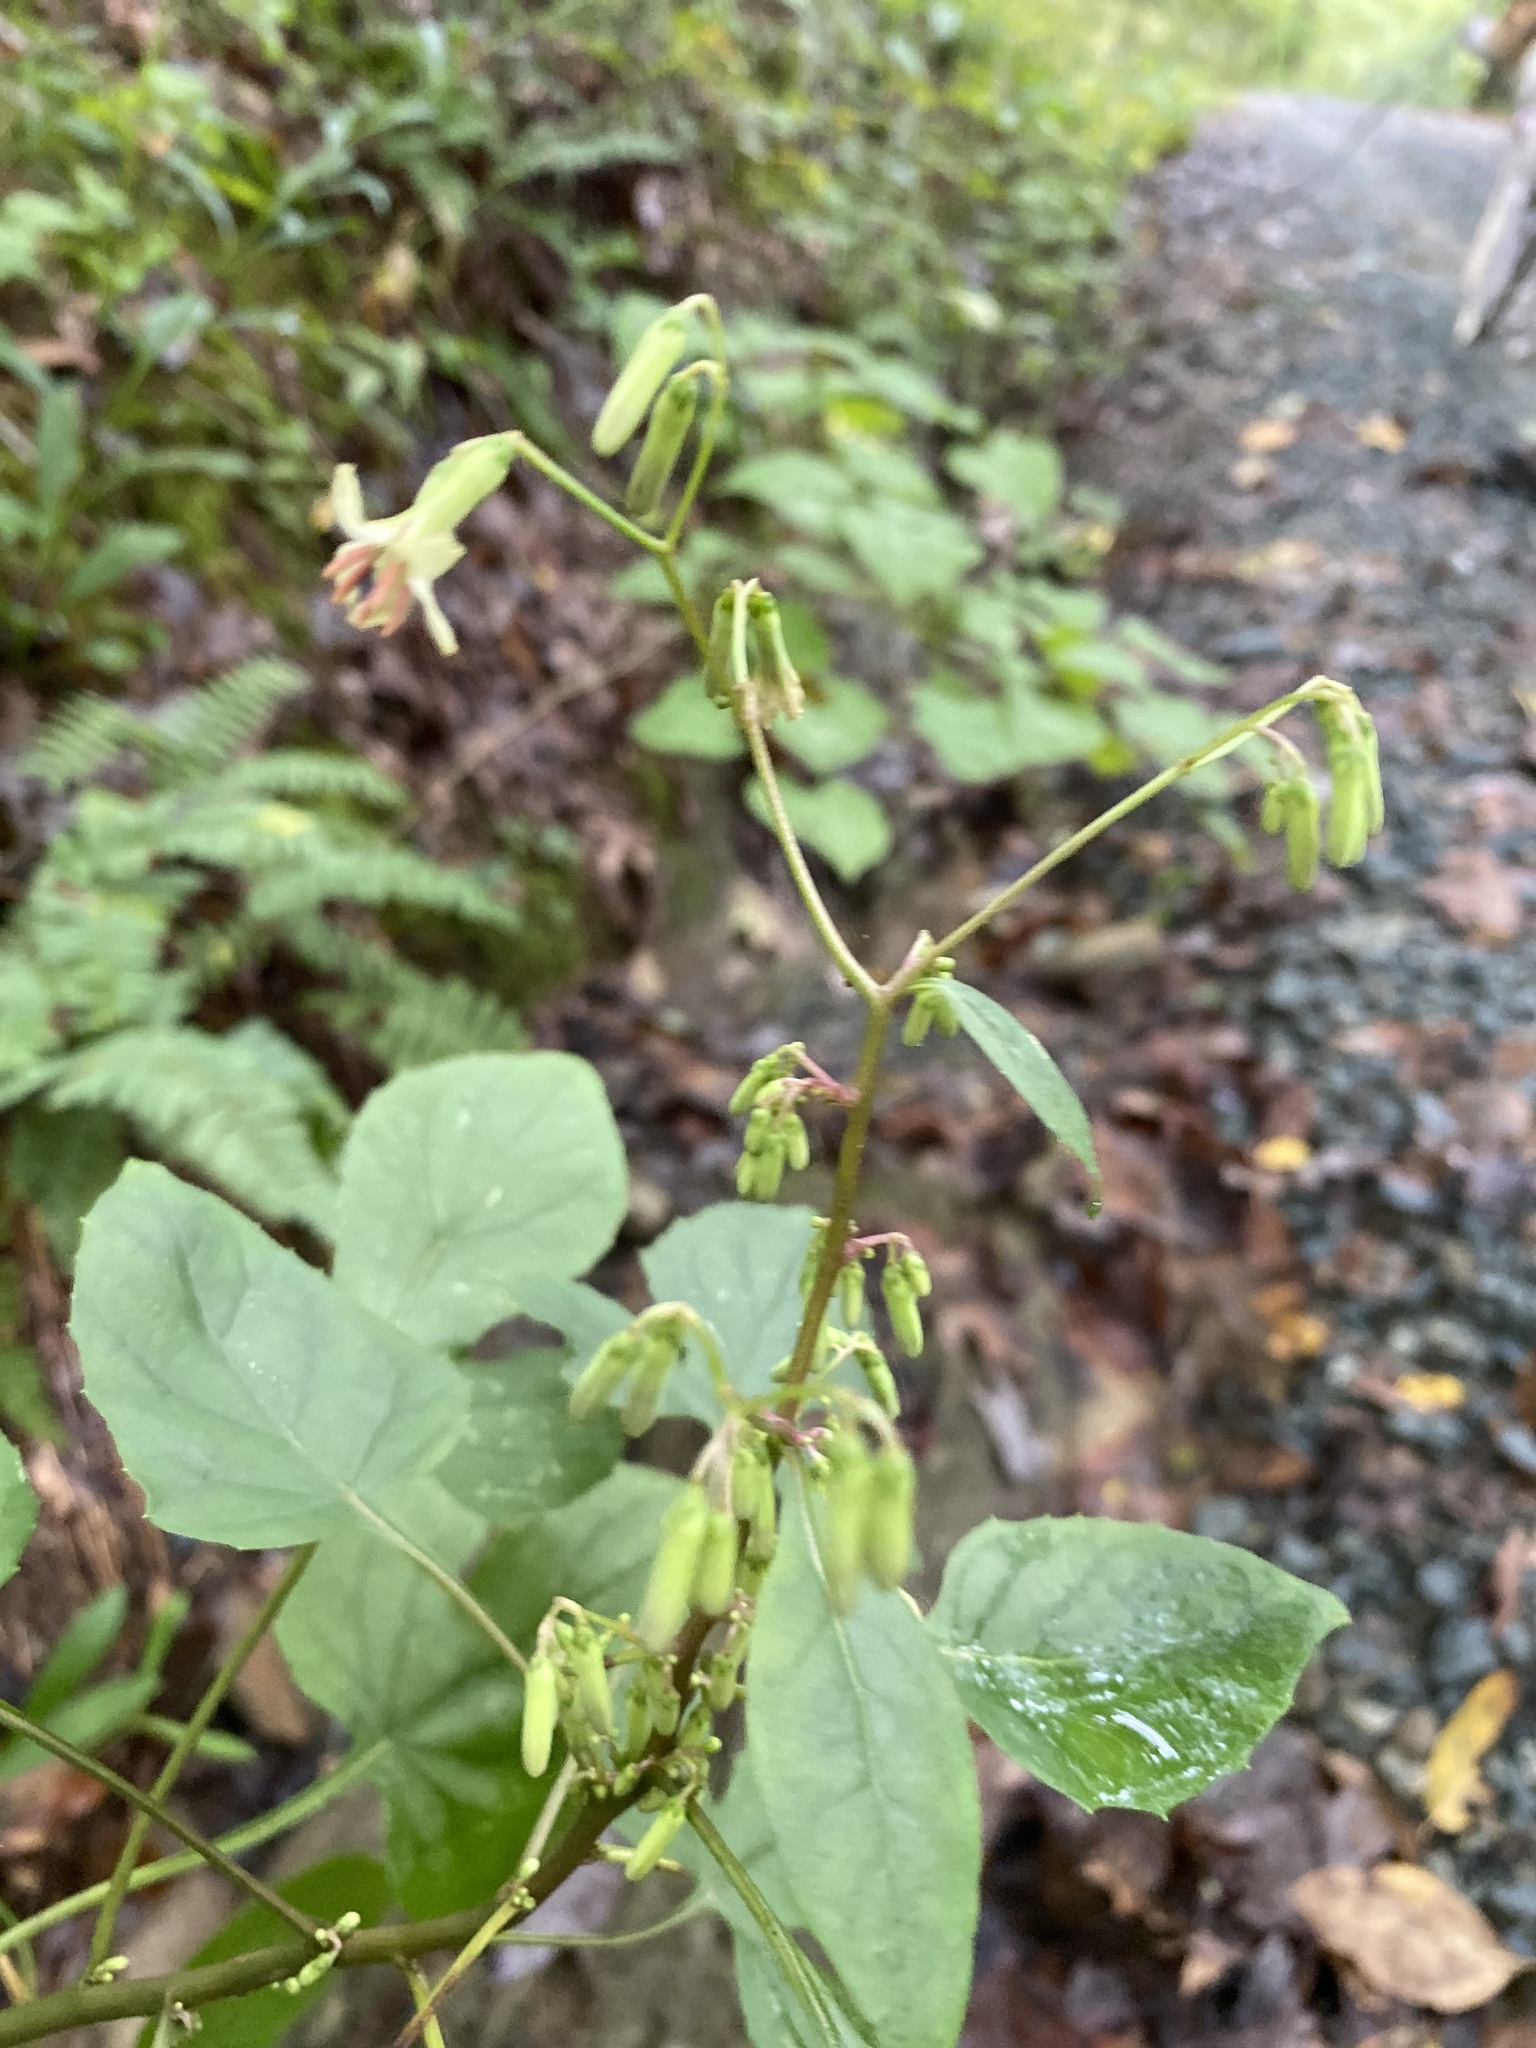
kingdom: Plantae
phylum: Tracheophyta
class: Magnoliopsida
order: Asterales
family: Asteraceae
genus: Nabalus
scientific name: Nabalus altissima
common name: Tall rattlesnakeroot
